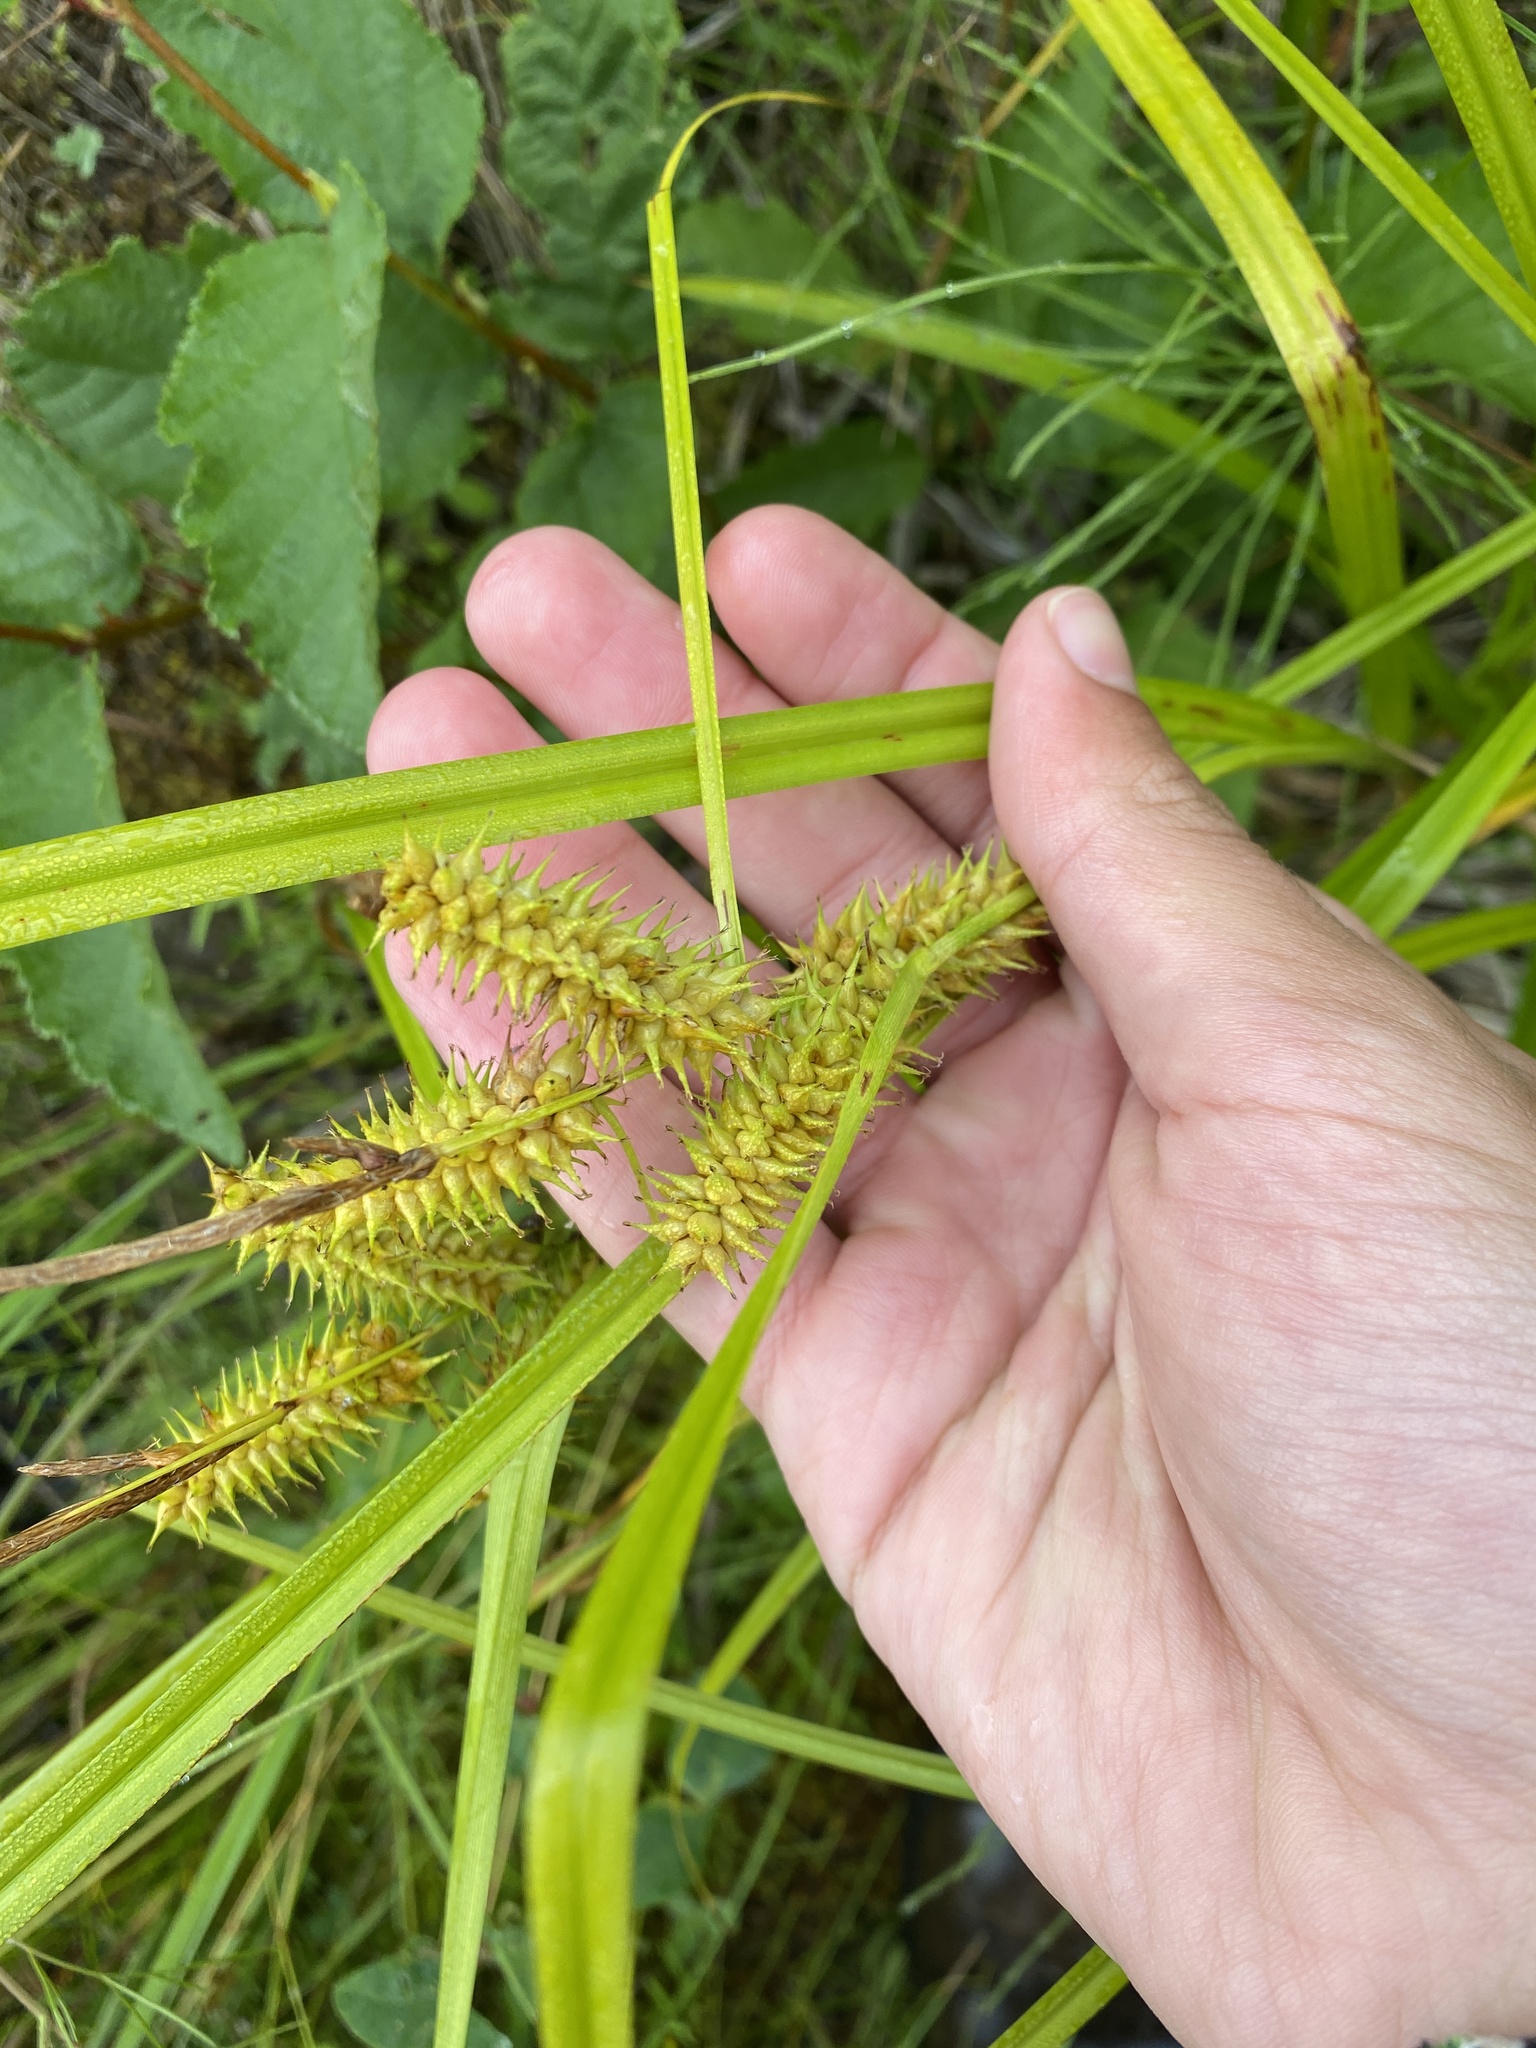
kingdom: Plantae
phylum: Tracheophyta
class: Liliopsida
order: Poales
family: Cyperaceae
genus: Carex
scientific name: Carex retrorsa
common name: Knot-sheath sedge
